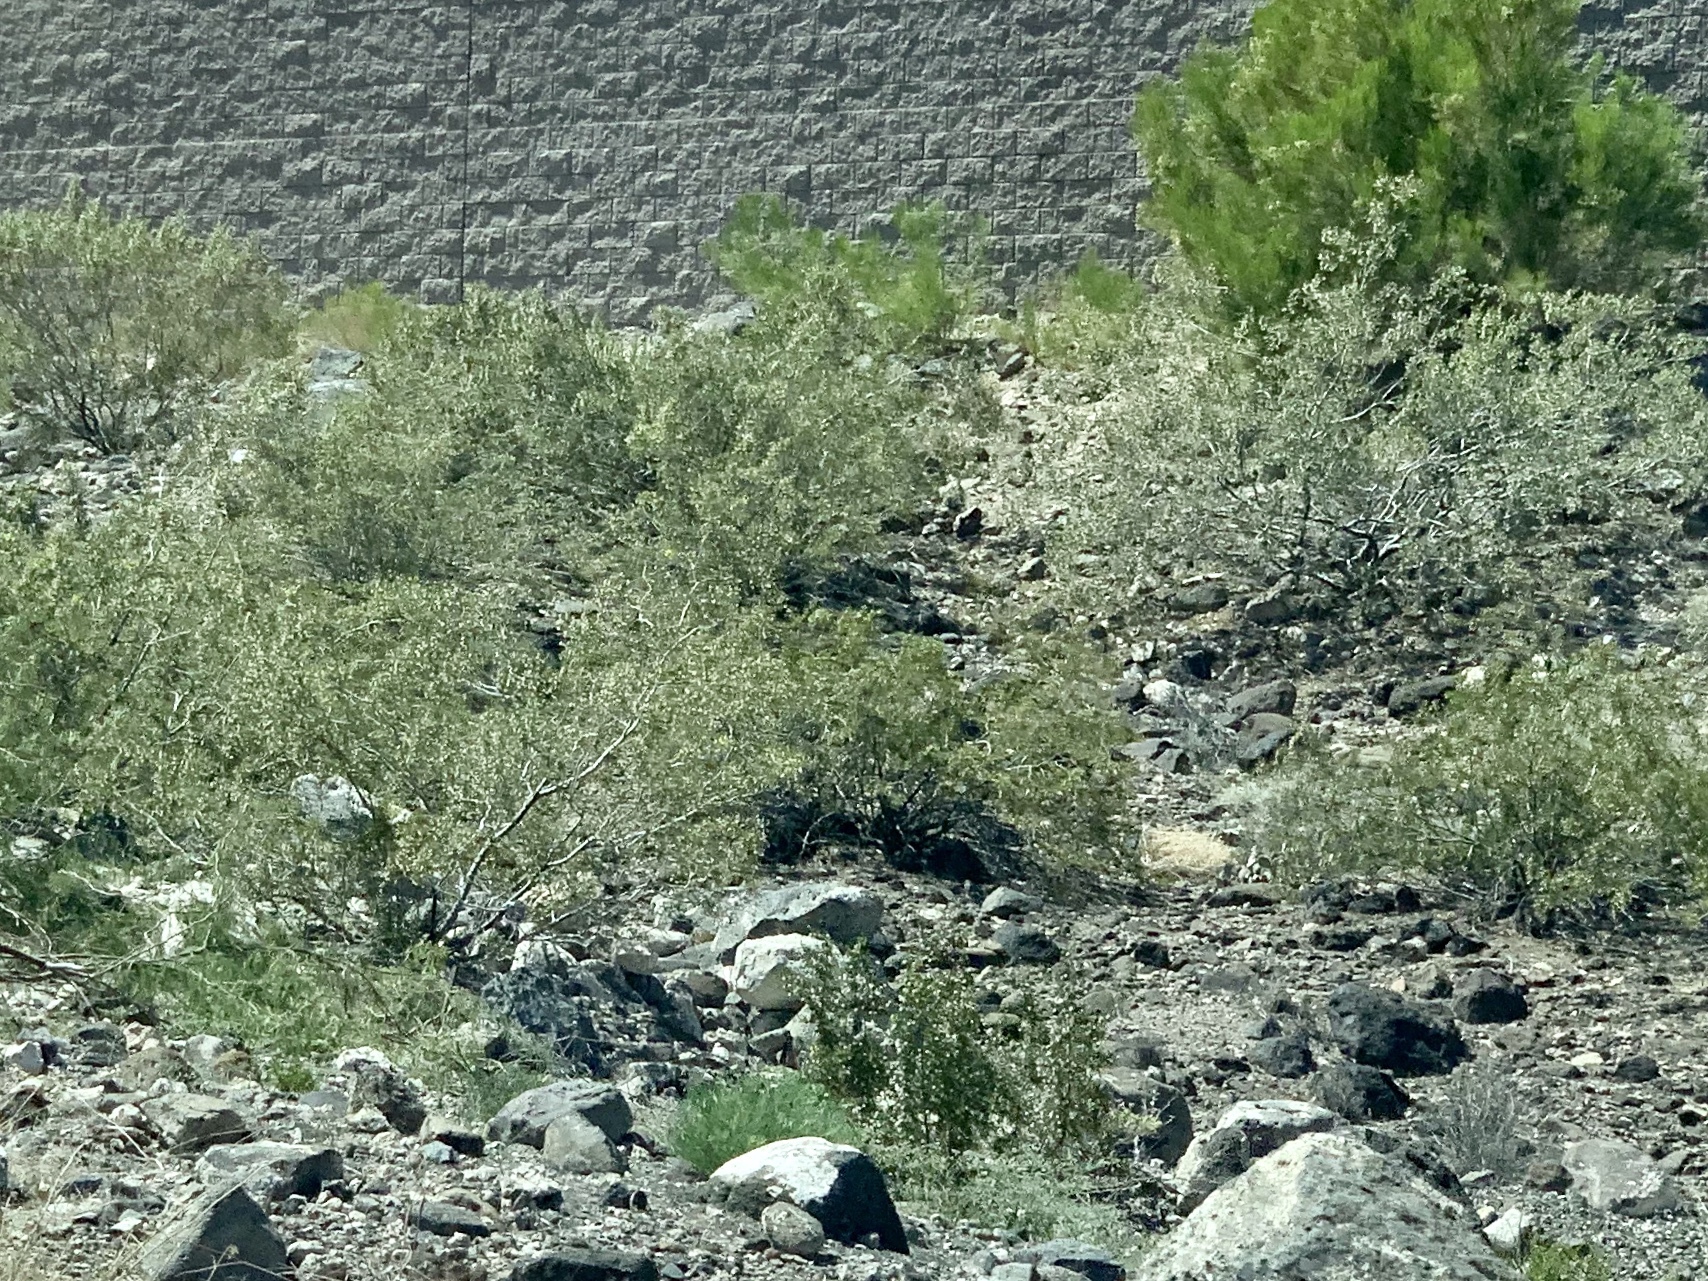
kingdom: Plantae
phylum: Tracheophyta
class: Magnoliopsida
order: Zygophyllales
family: Zygophyllaceae
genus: Larrea
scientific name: Larrea tridentata
